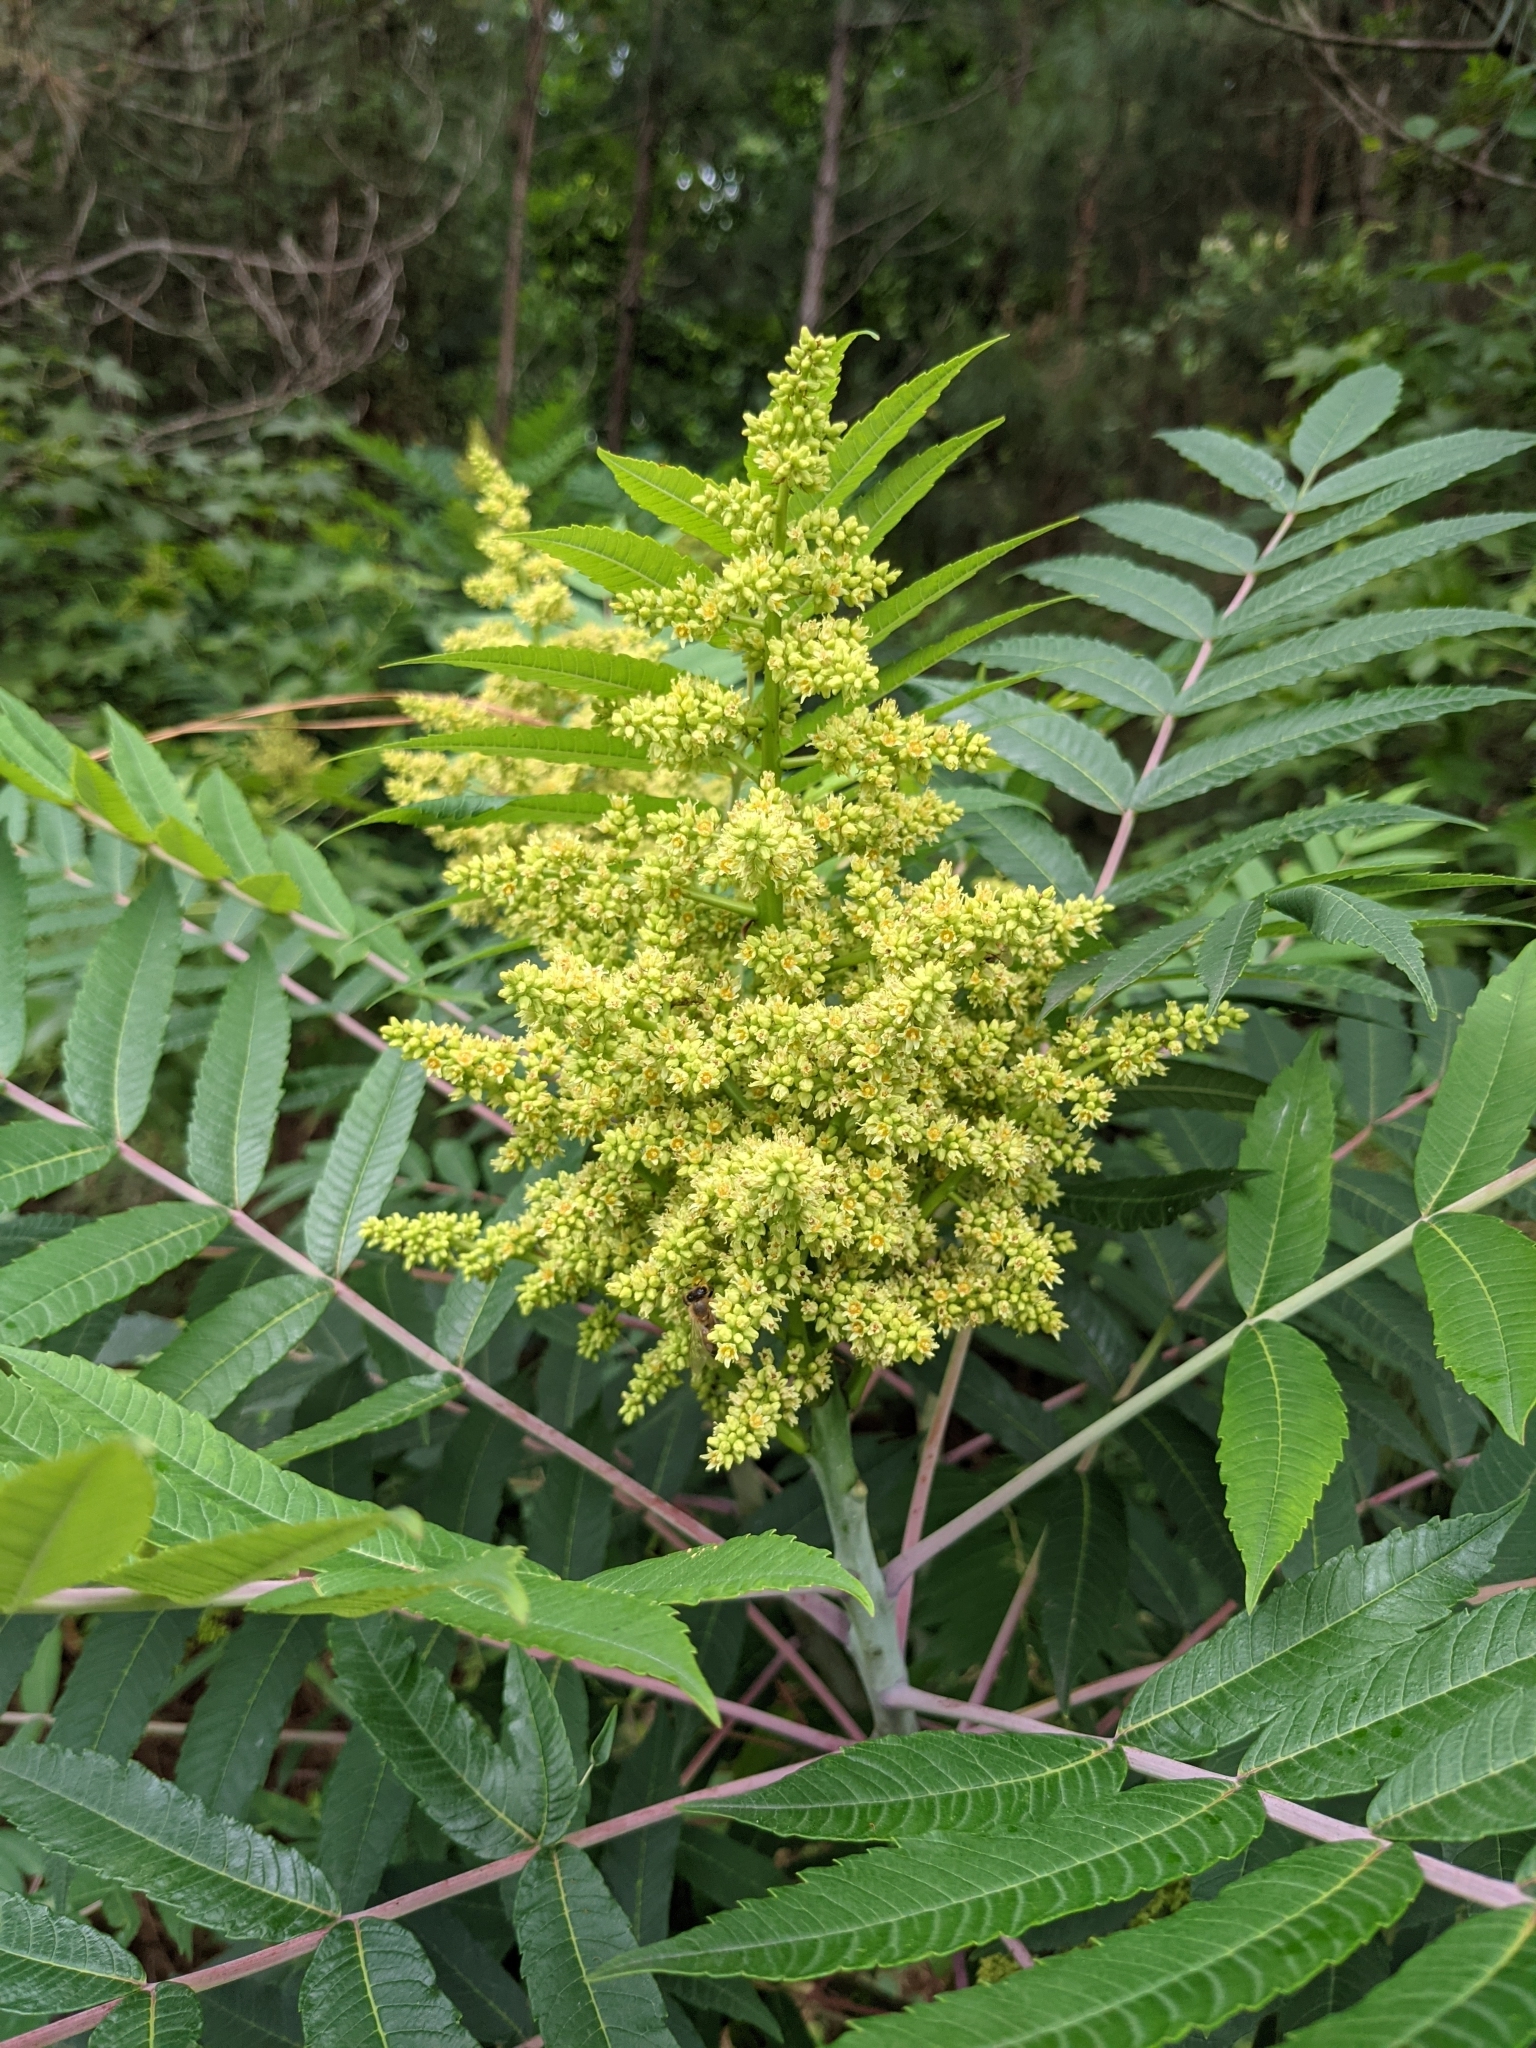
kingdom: Plantae
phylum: Tracheophyta
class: Magnoliopsida
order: Sapindales
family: Anacardiaceae
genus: Rhus
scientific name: Rhus glabra
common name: Scarlet sumac
